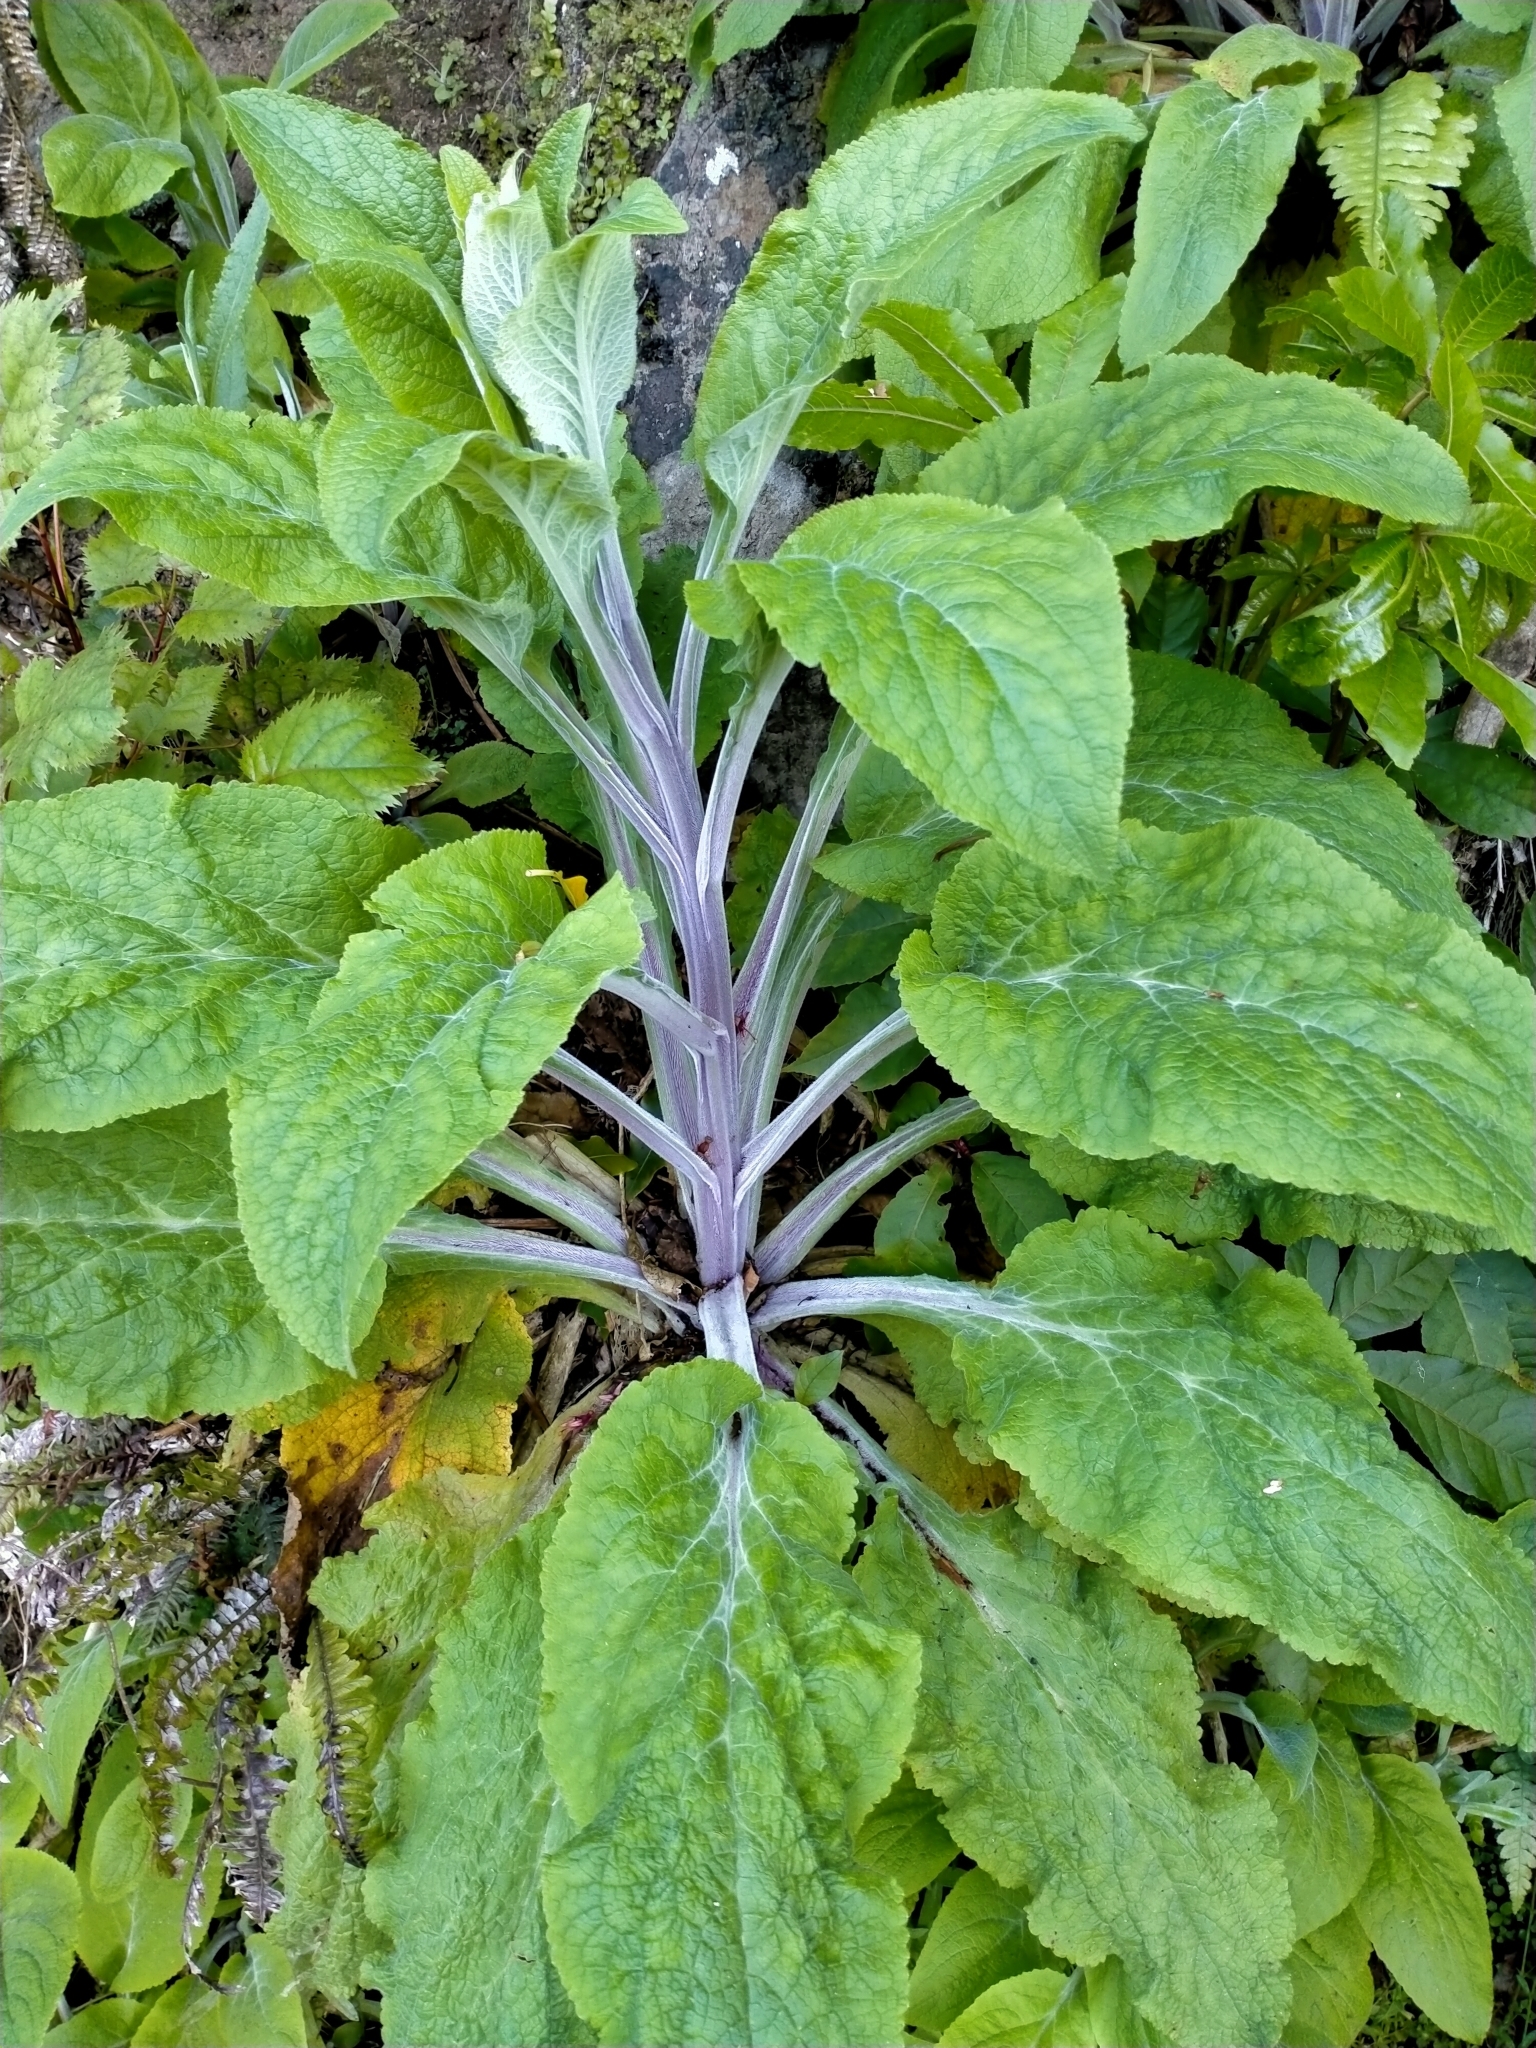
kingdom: Plantae
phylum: Tracheophyta
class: Magnoliopsida
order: Lamiales
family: Plantaginaceae
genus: Digitalis
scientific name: Digitalis purpurea
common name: Foxglove
